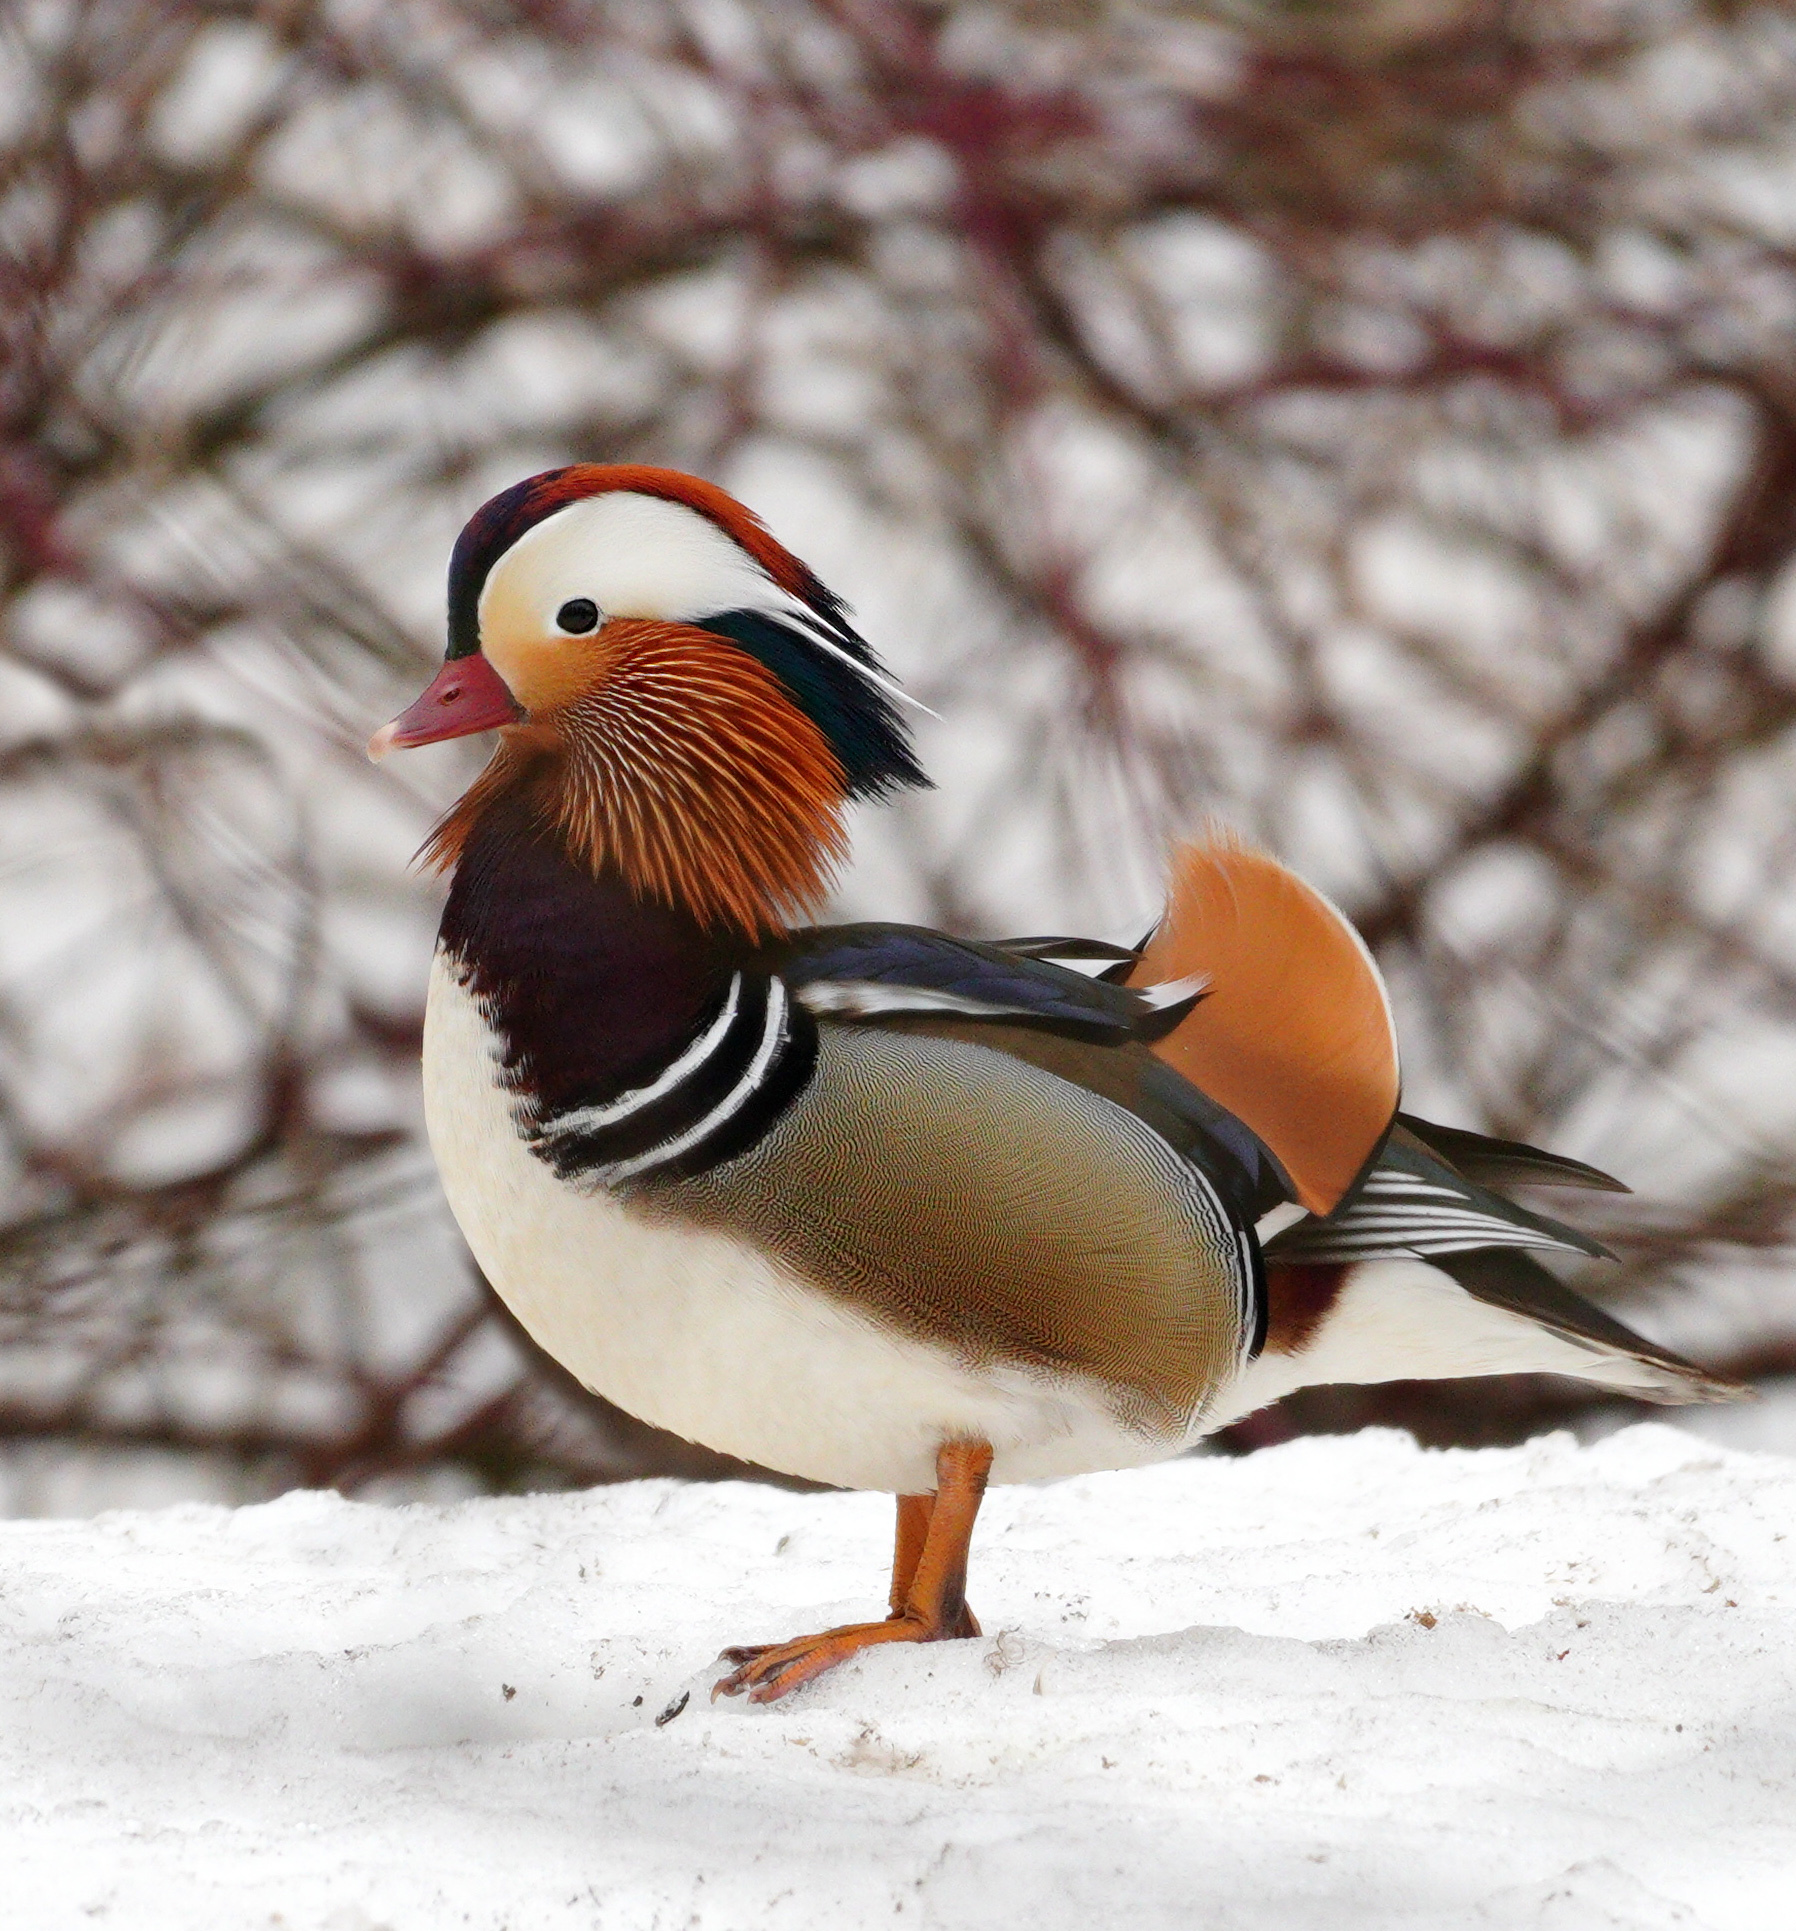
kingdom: Animalia
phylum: Chordata
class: Aves
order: Anseriformes
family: Anatidae
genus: Aix
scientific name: Aix galericulata
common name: Mandarin duck
